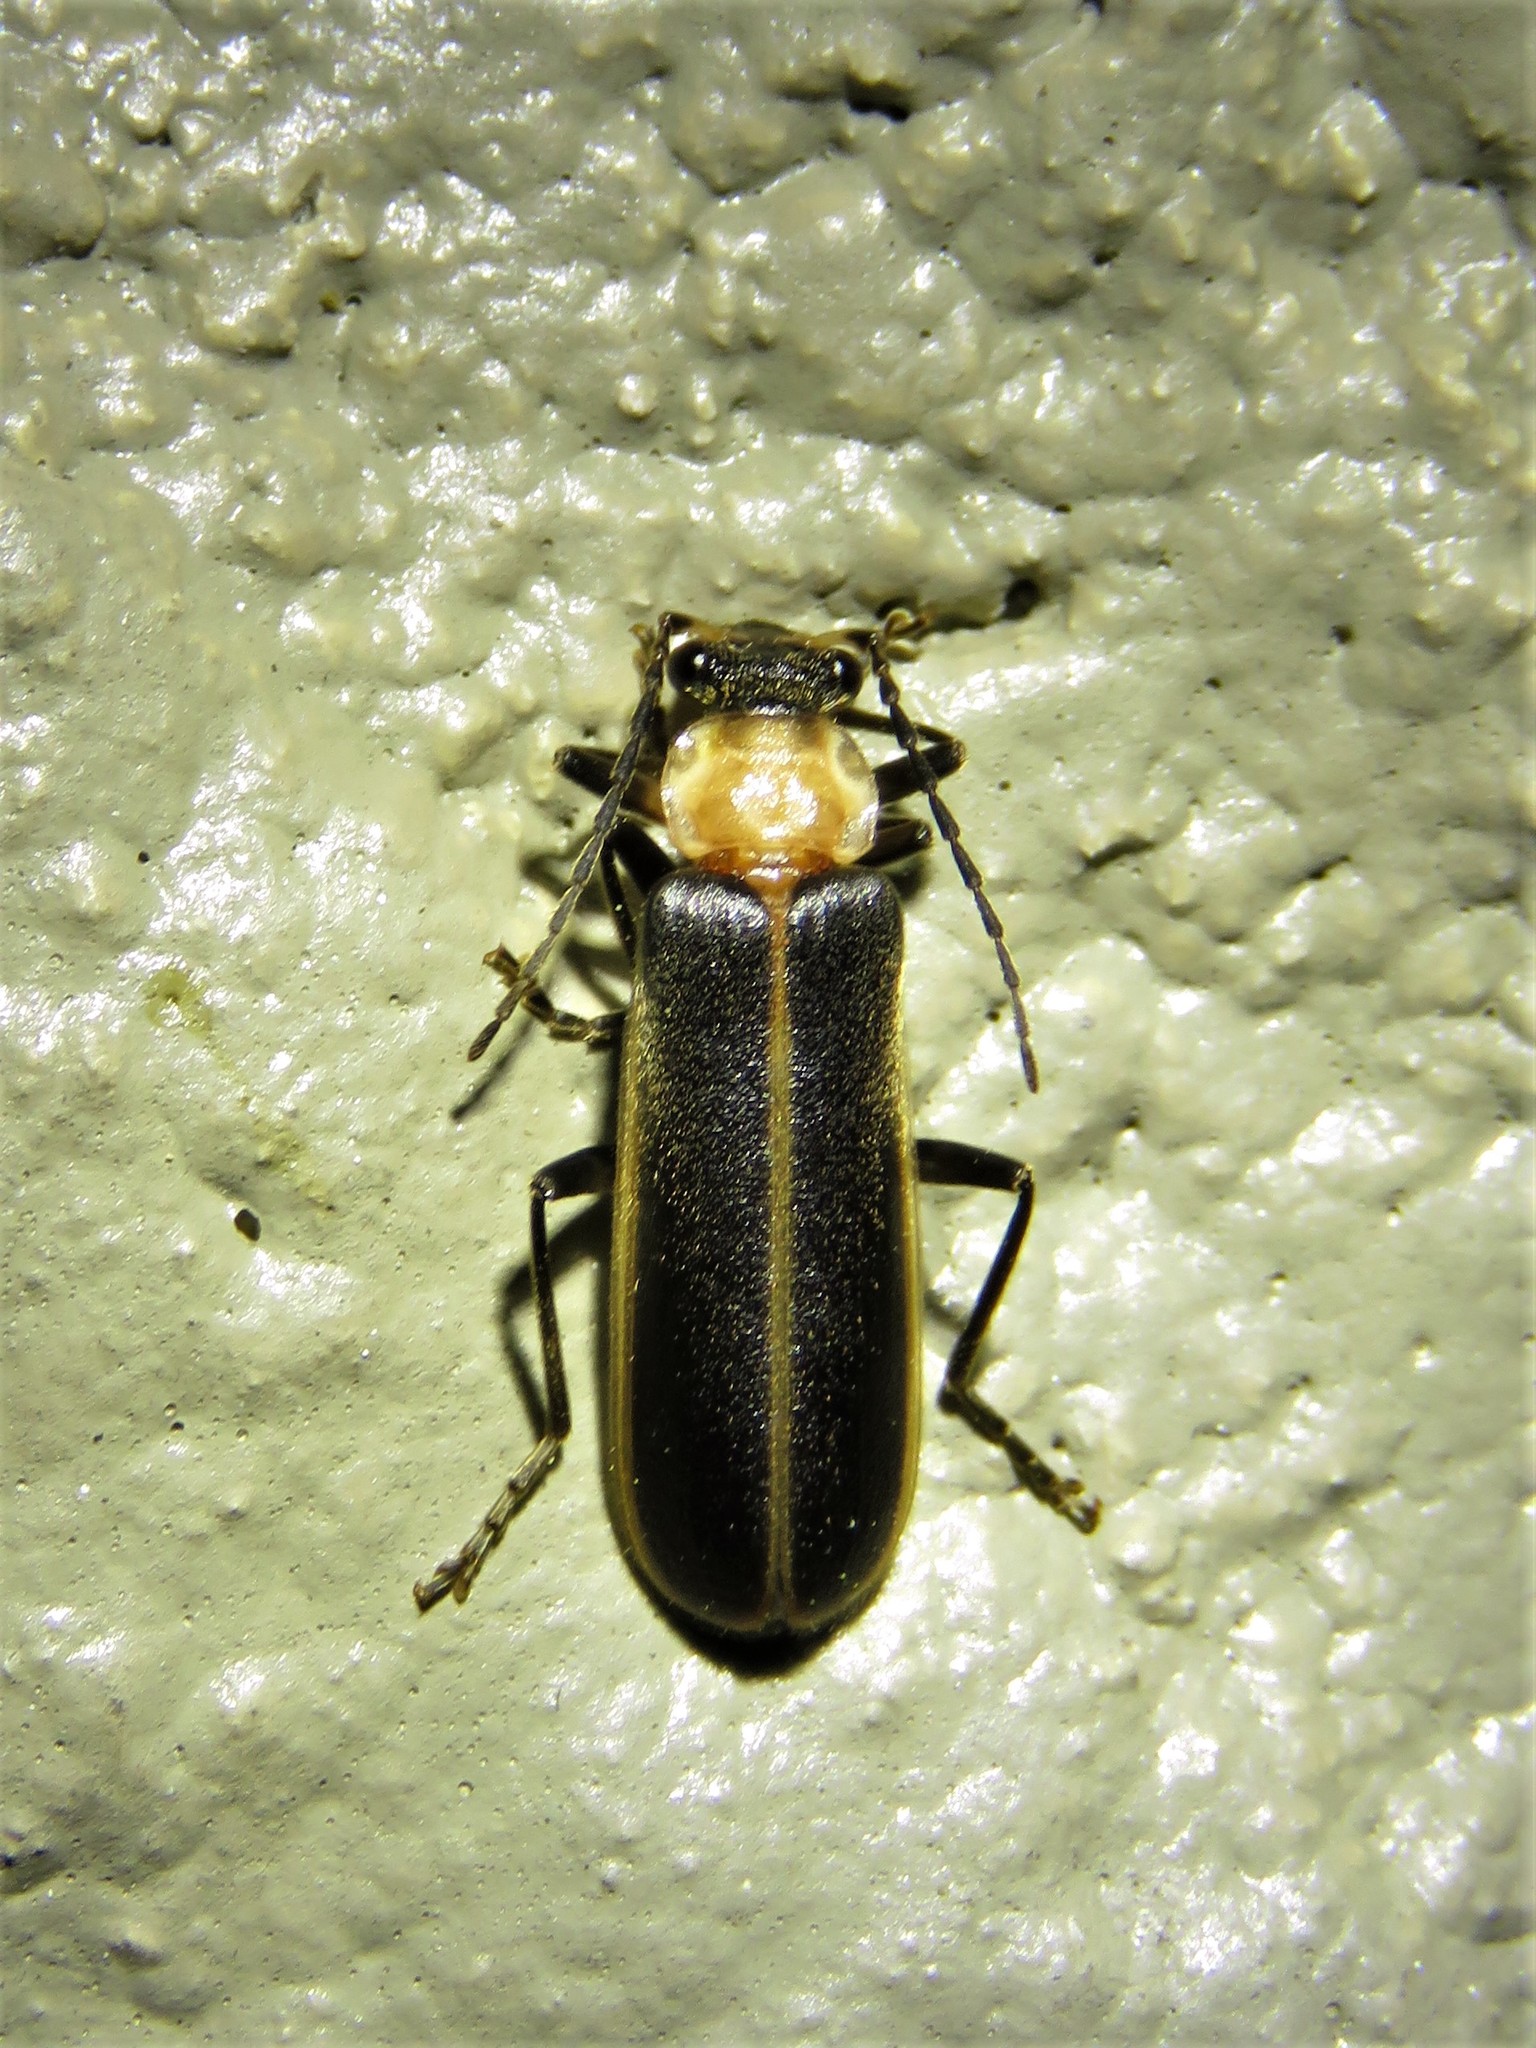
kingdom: Animalia
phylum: Arthropoda
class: Insecta
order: Coleoptera
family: Cantharidae
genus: Podabrus
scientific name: Podabrus flavicollis
